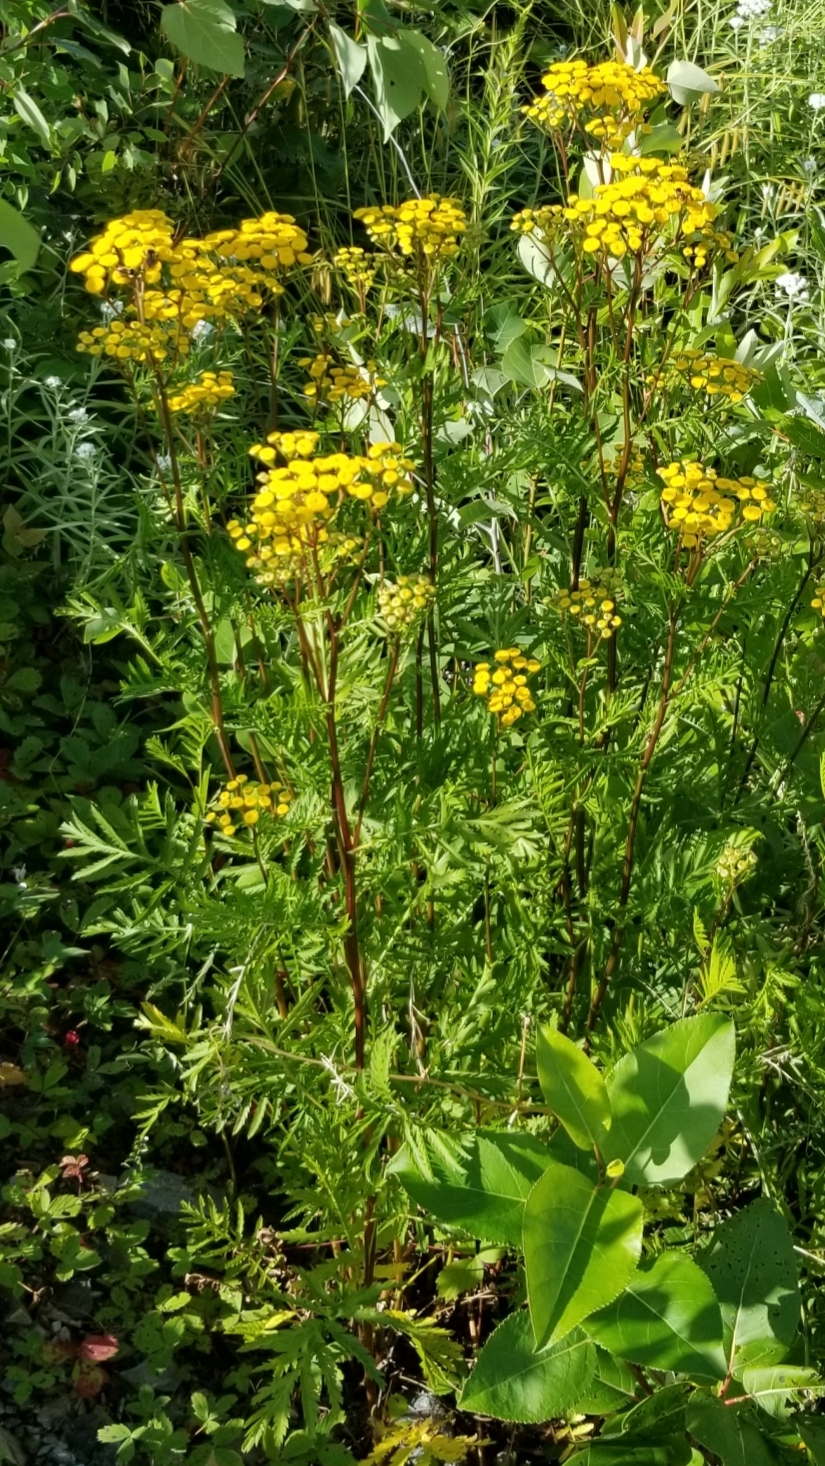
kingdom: Plantae
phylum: Tracheophyta
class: Magnoliopsida
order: Asterales
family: Asteraceae
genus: Tanacetum
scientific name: Tanacetum vulgare
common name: Common tansy
